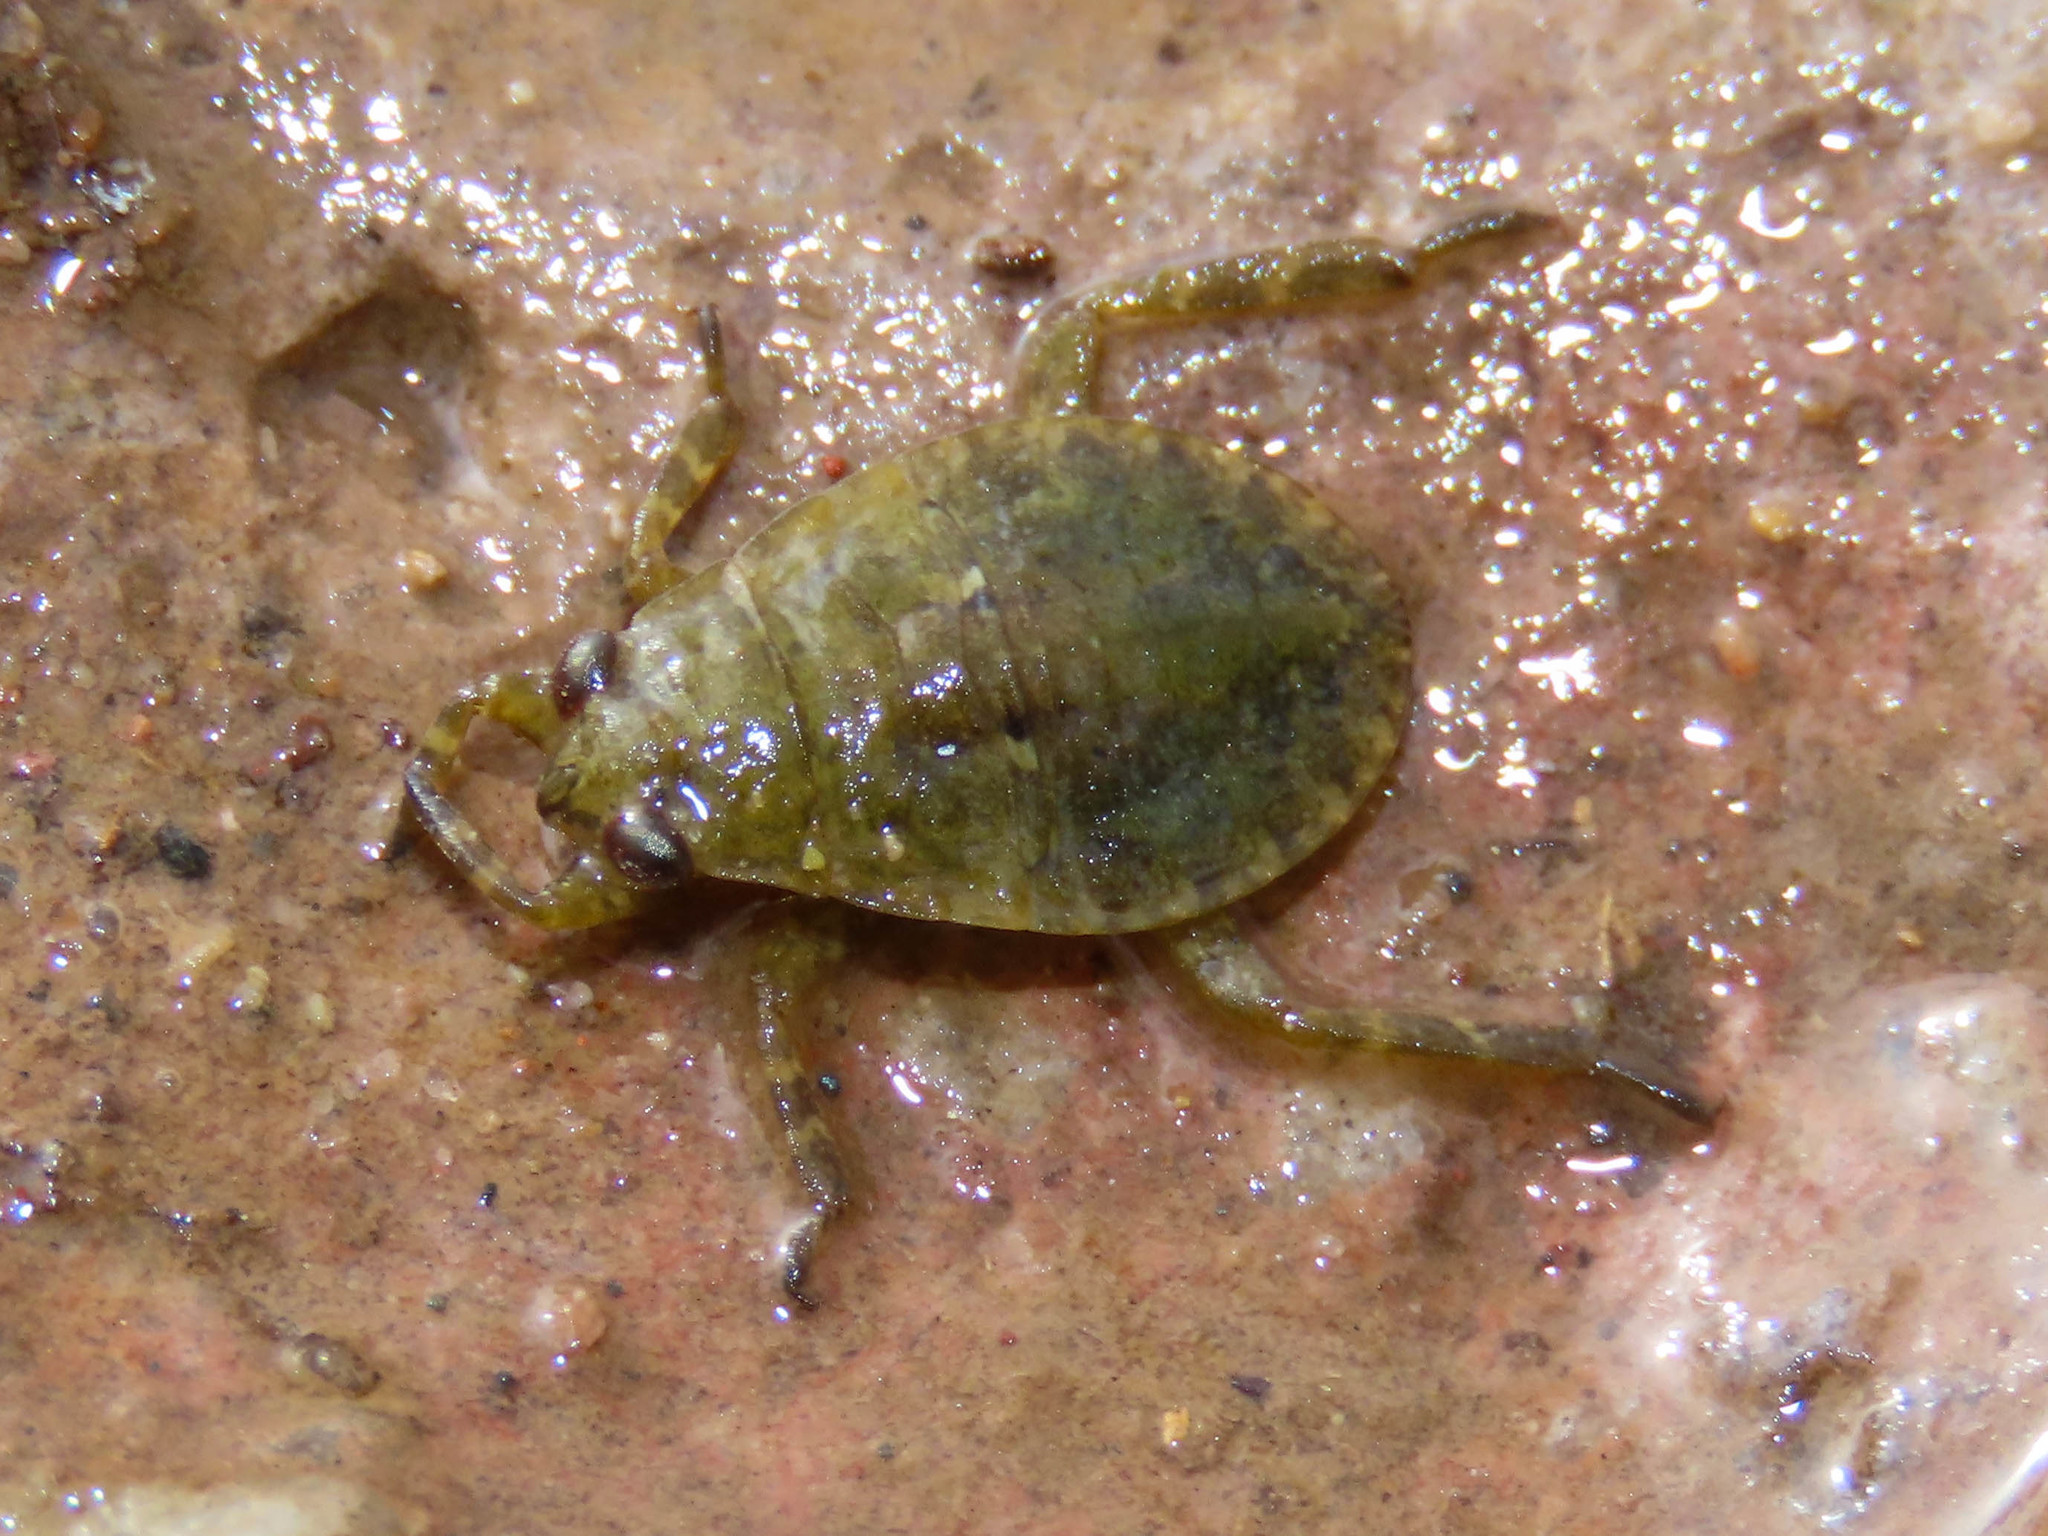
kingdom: Animalia
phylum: Arthropoda
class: Insecta
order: Hemiptera
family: Belostomatidae
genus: Abedus
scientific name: Abedus
